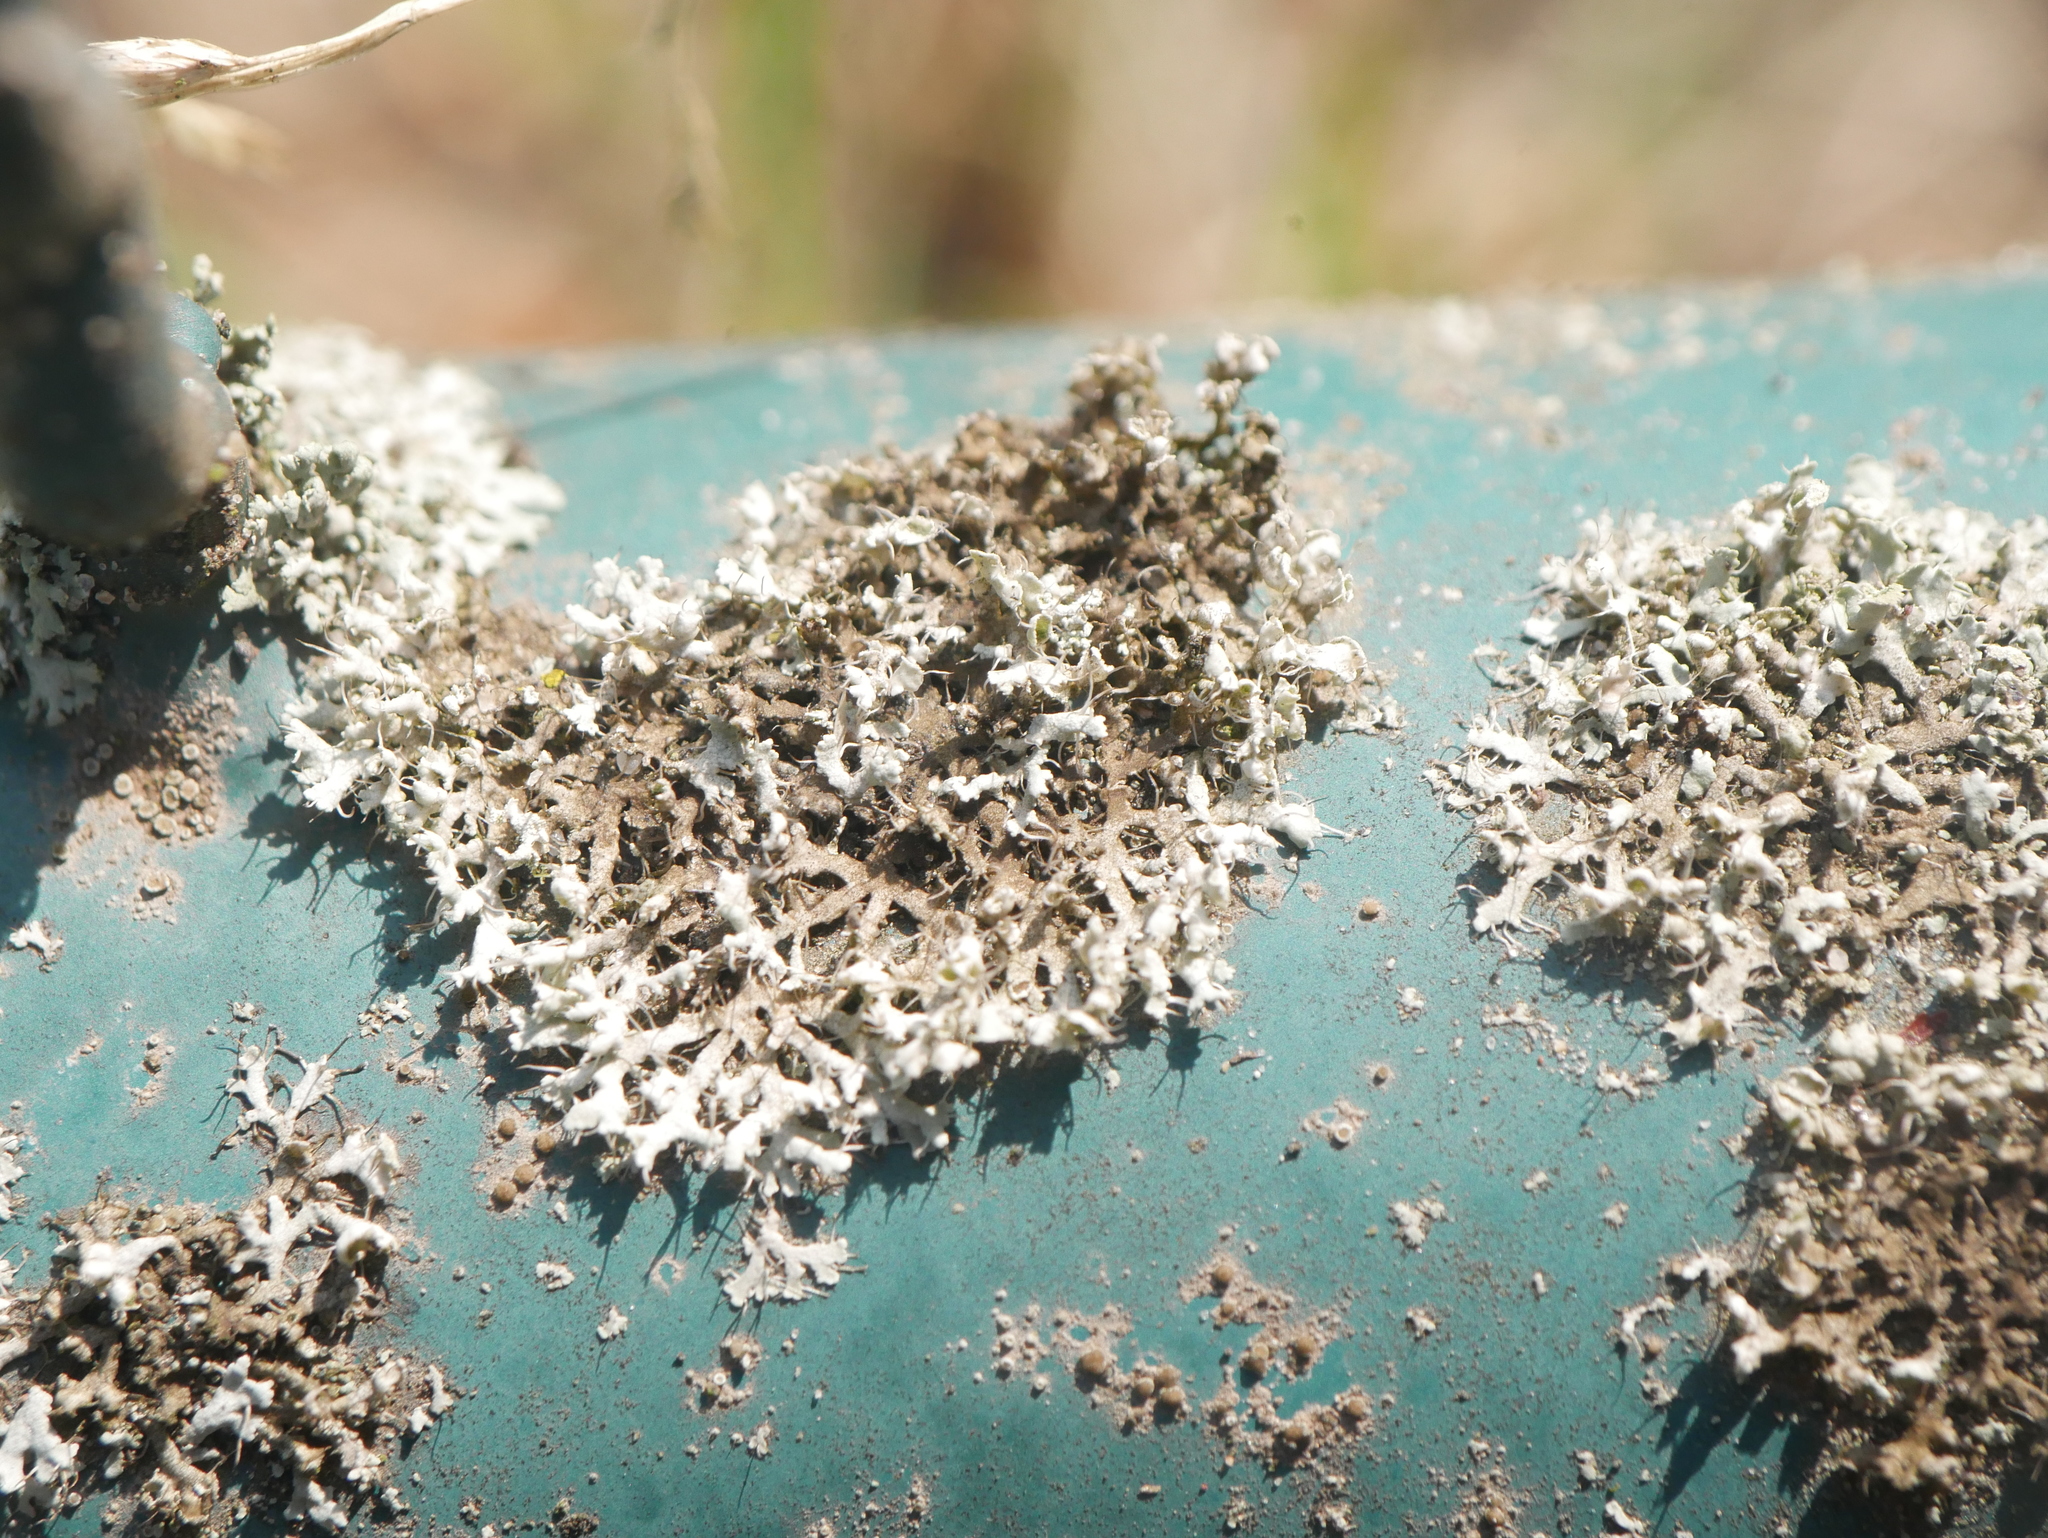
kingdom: Fungi
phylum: Ascomycota
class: Lecanoromycetes
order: Caliciales
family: Physciaceae
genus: Physcia
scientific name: Physcia adscendens
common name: Hooded rosette lichen
